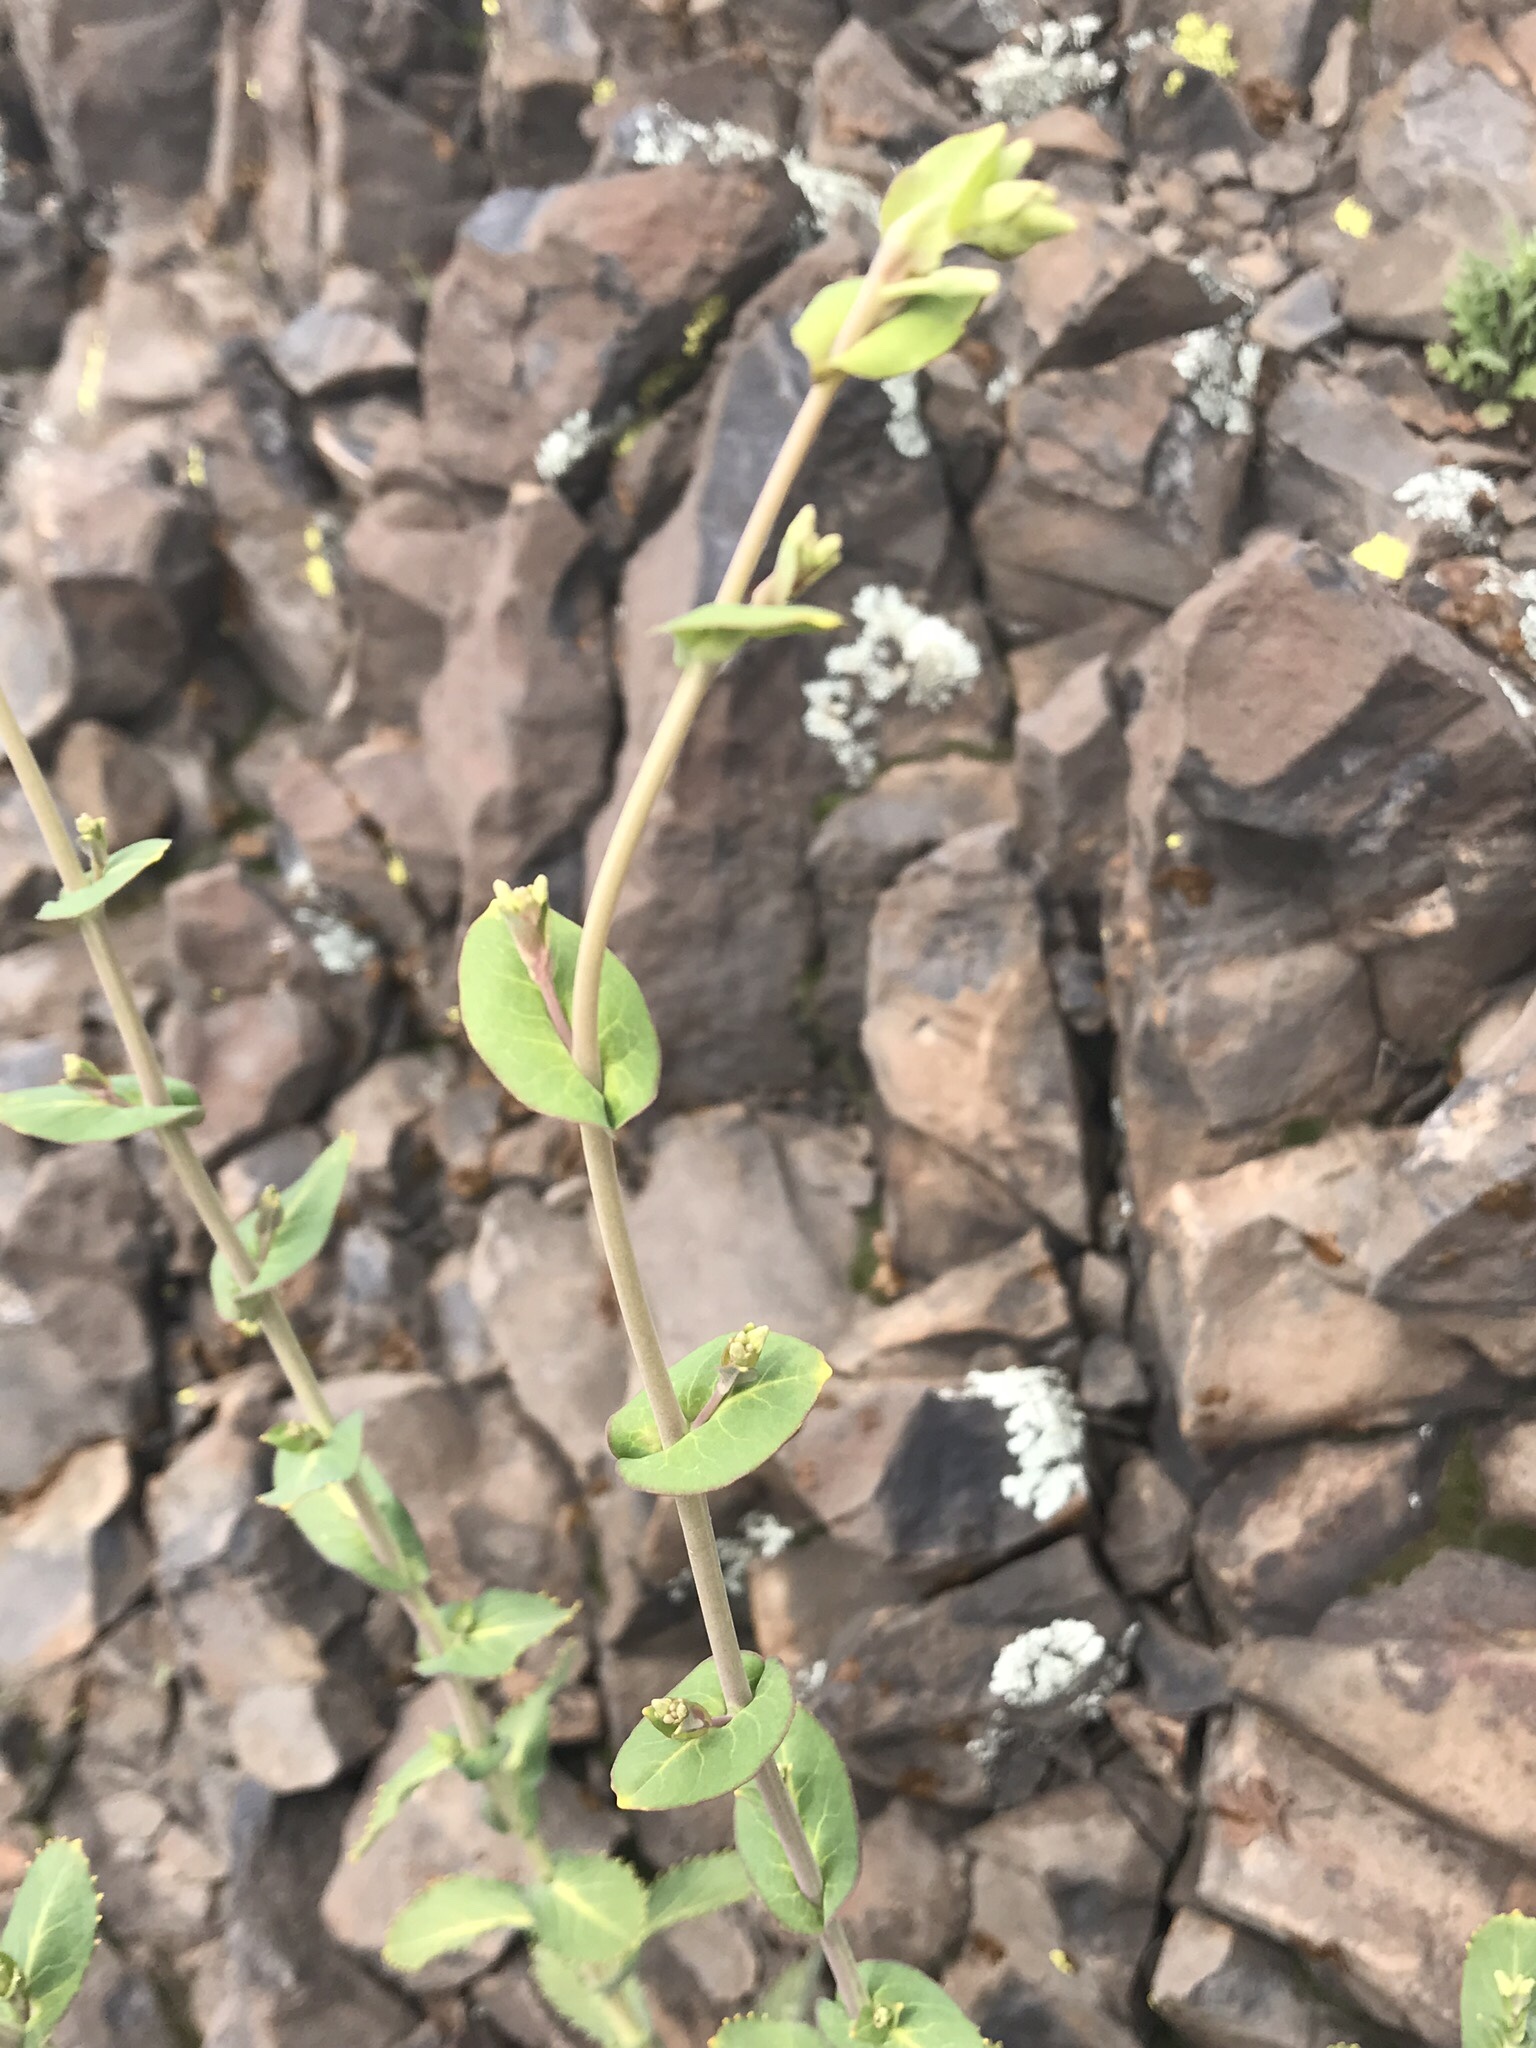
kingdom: Plantae
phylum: Tracheophyta
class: Magnoliopsida
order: Brassicales
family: Brassicaceae
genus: Streptanthus
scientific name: Streptanthus tortuosus
